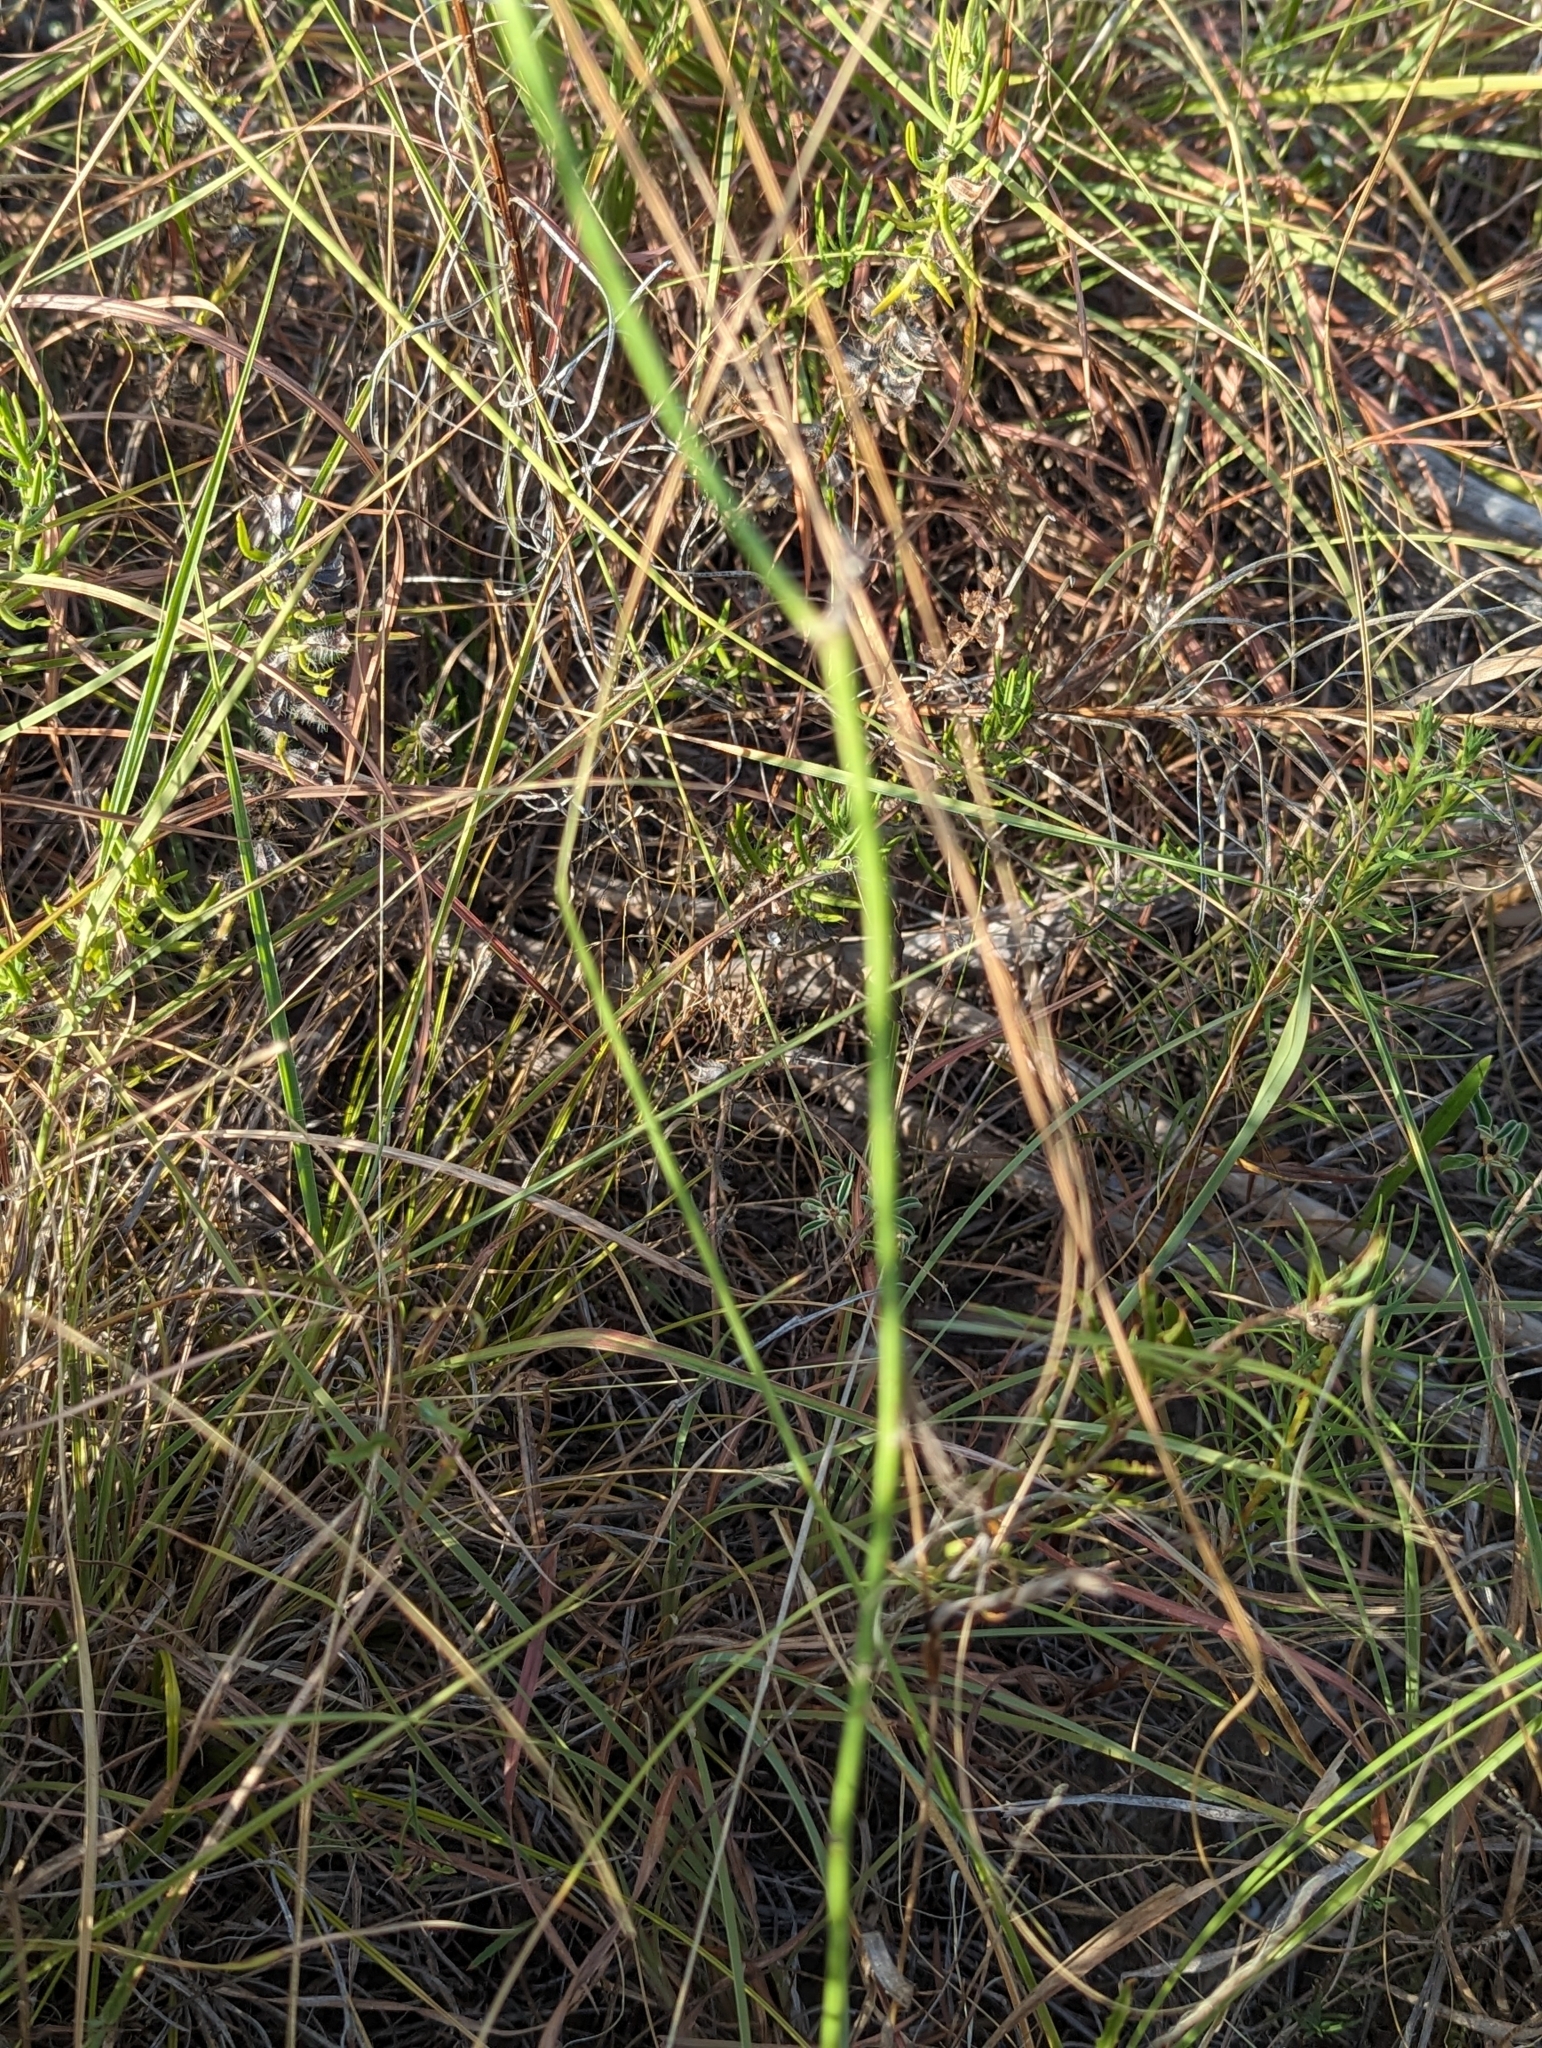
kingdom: Plantae
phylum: Tracheophyta
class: Magnoliopsida
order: Asterales
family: Asteraceae
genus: Lygodesmia
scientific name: Lygodesmia texana
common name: Texas skeleton-plant
